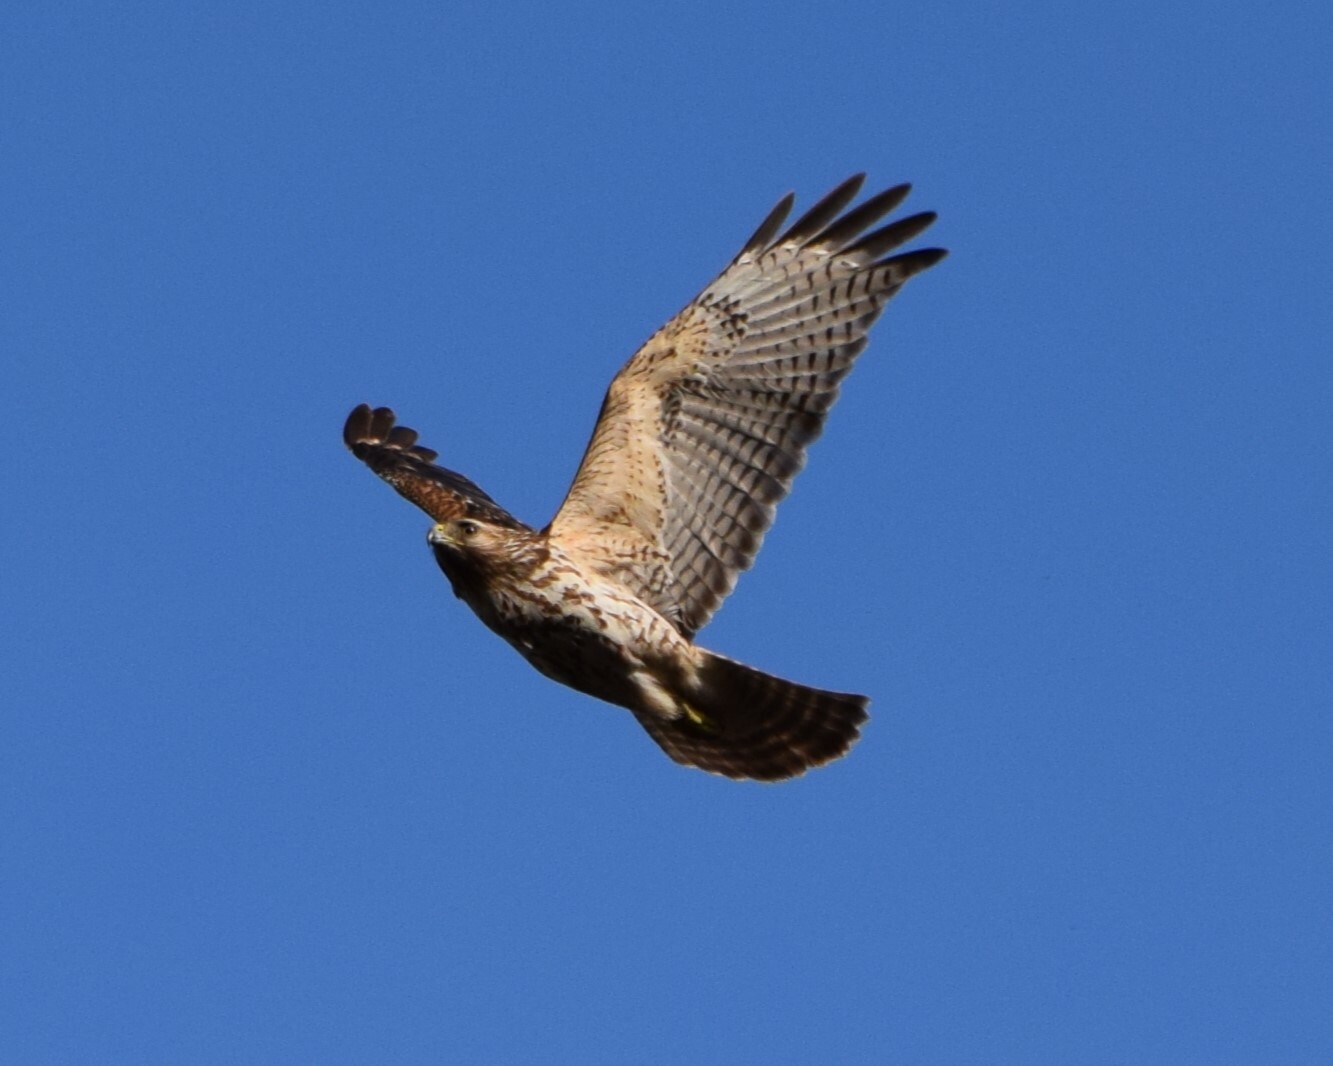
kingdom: Animalia
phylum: Chordata
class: Aves
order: Accipitriformes
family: Accipitridae
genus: Buteo
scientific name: Buteo lineatus
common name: Red-shouldered hawk
